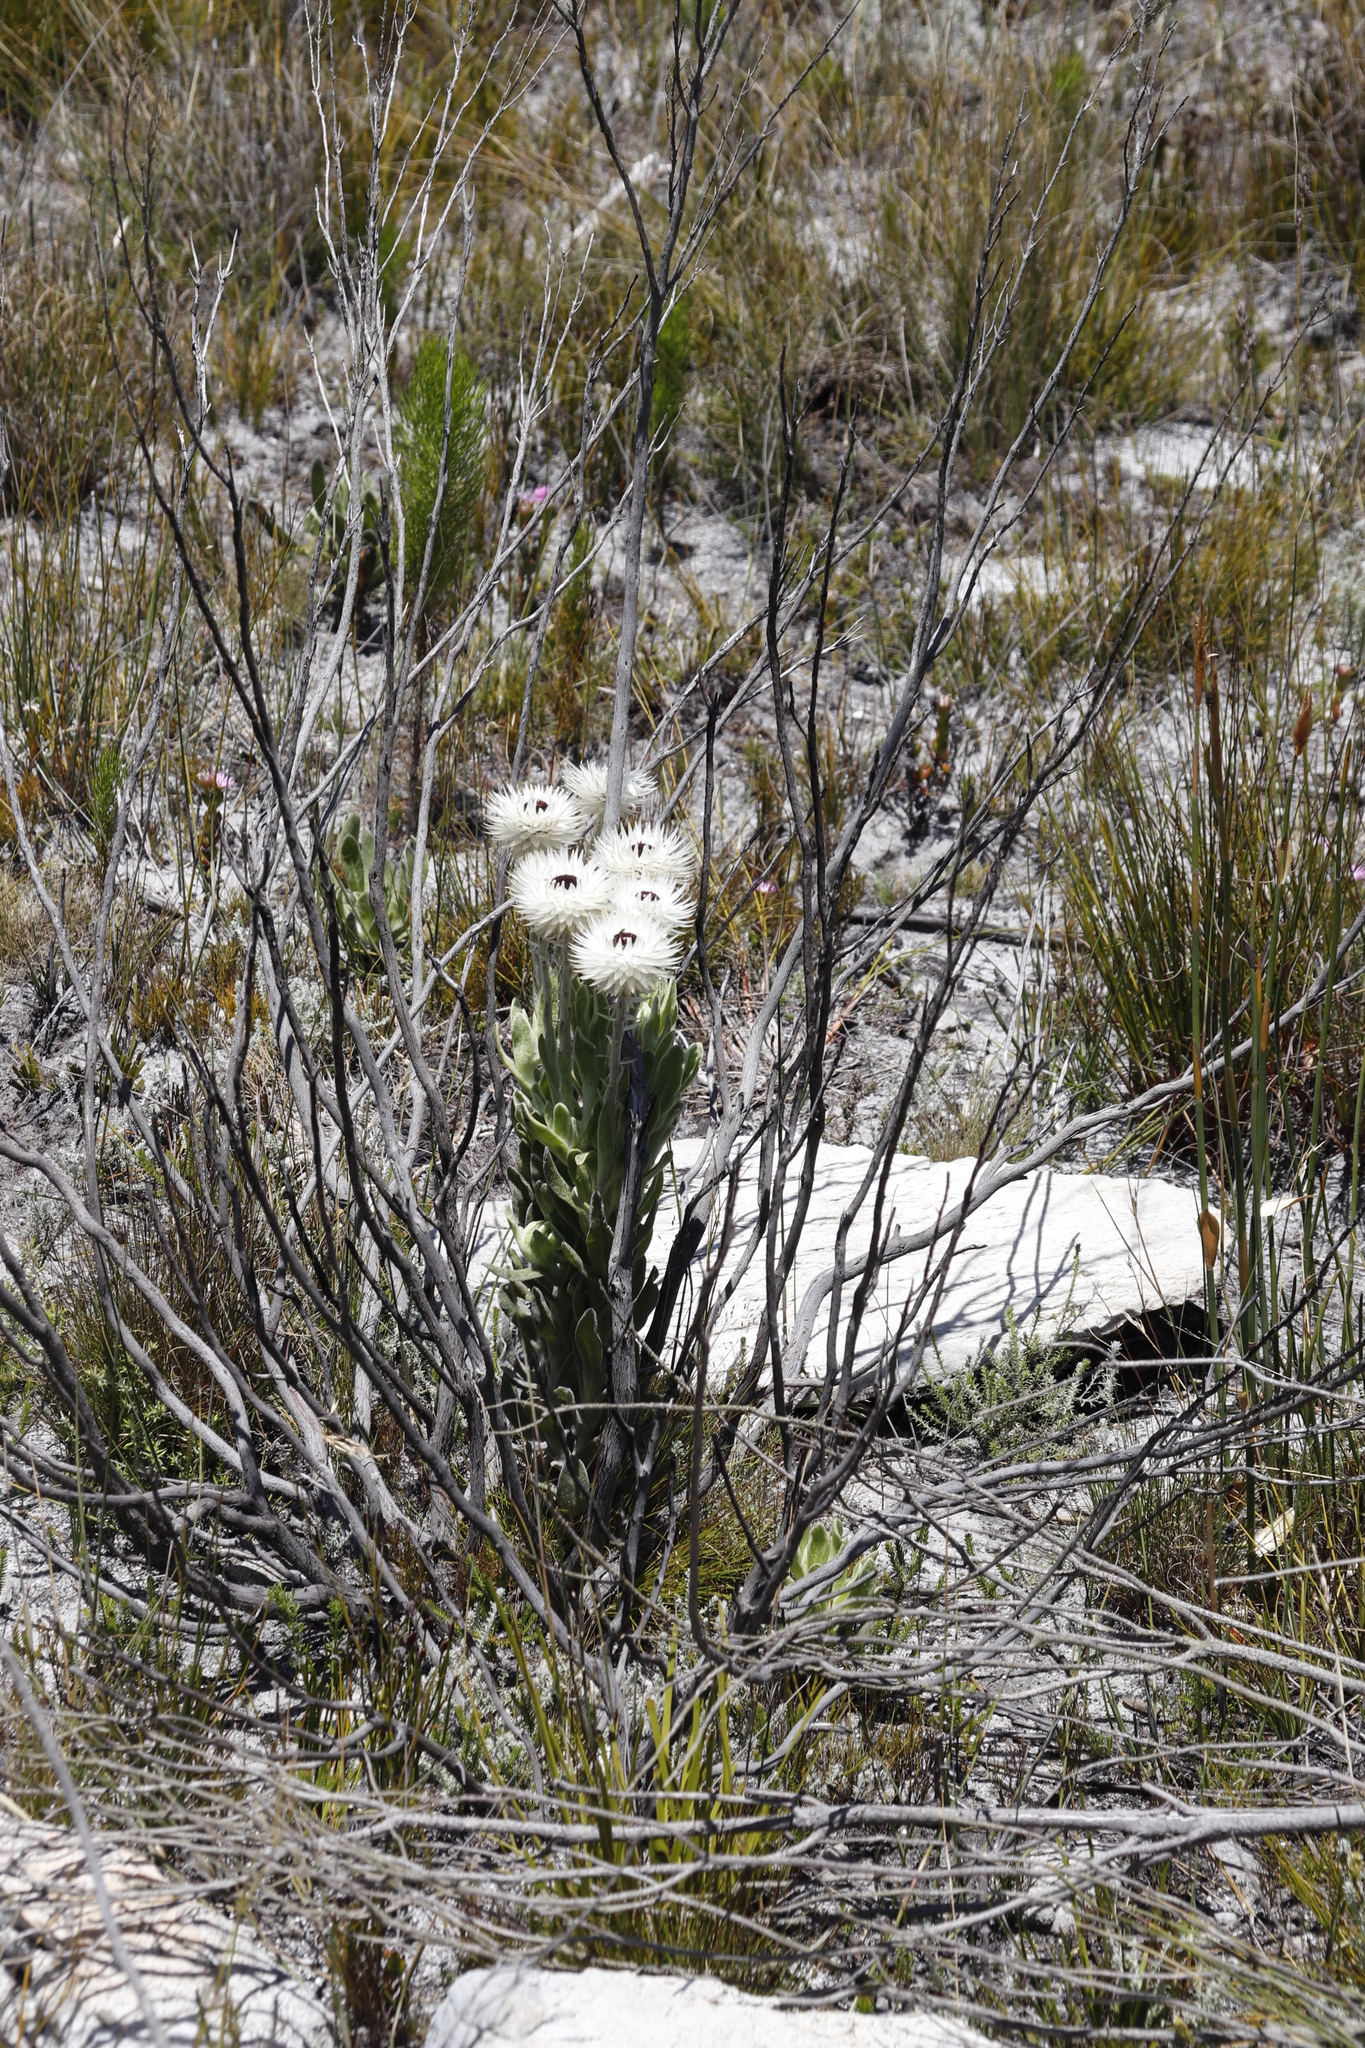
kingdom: Plantae
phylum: Tracheophyta
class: Magnoliopsida
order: Asterales
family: Asteraceae
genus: Syncarpha
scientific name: Syncarpha vestita
